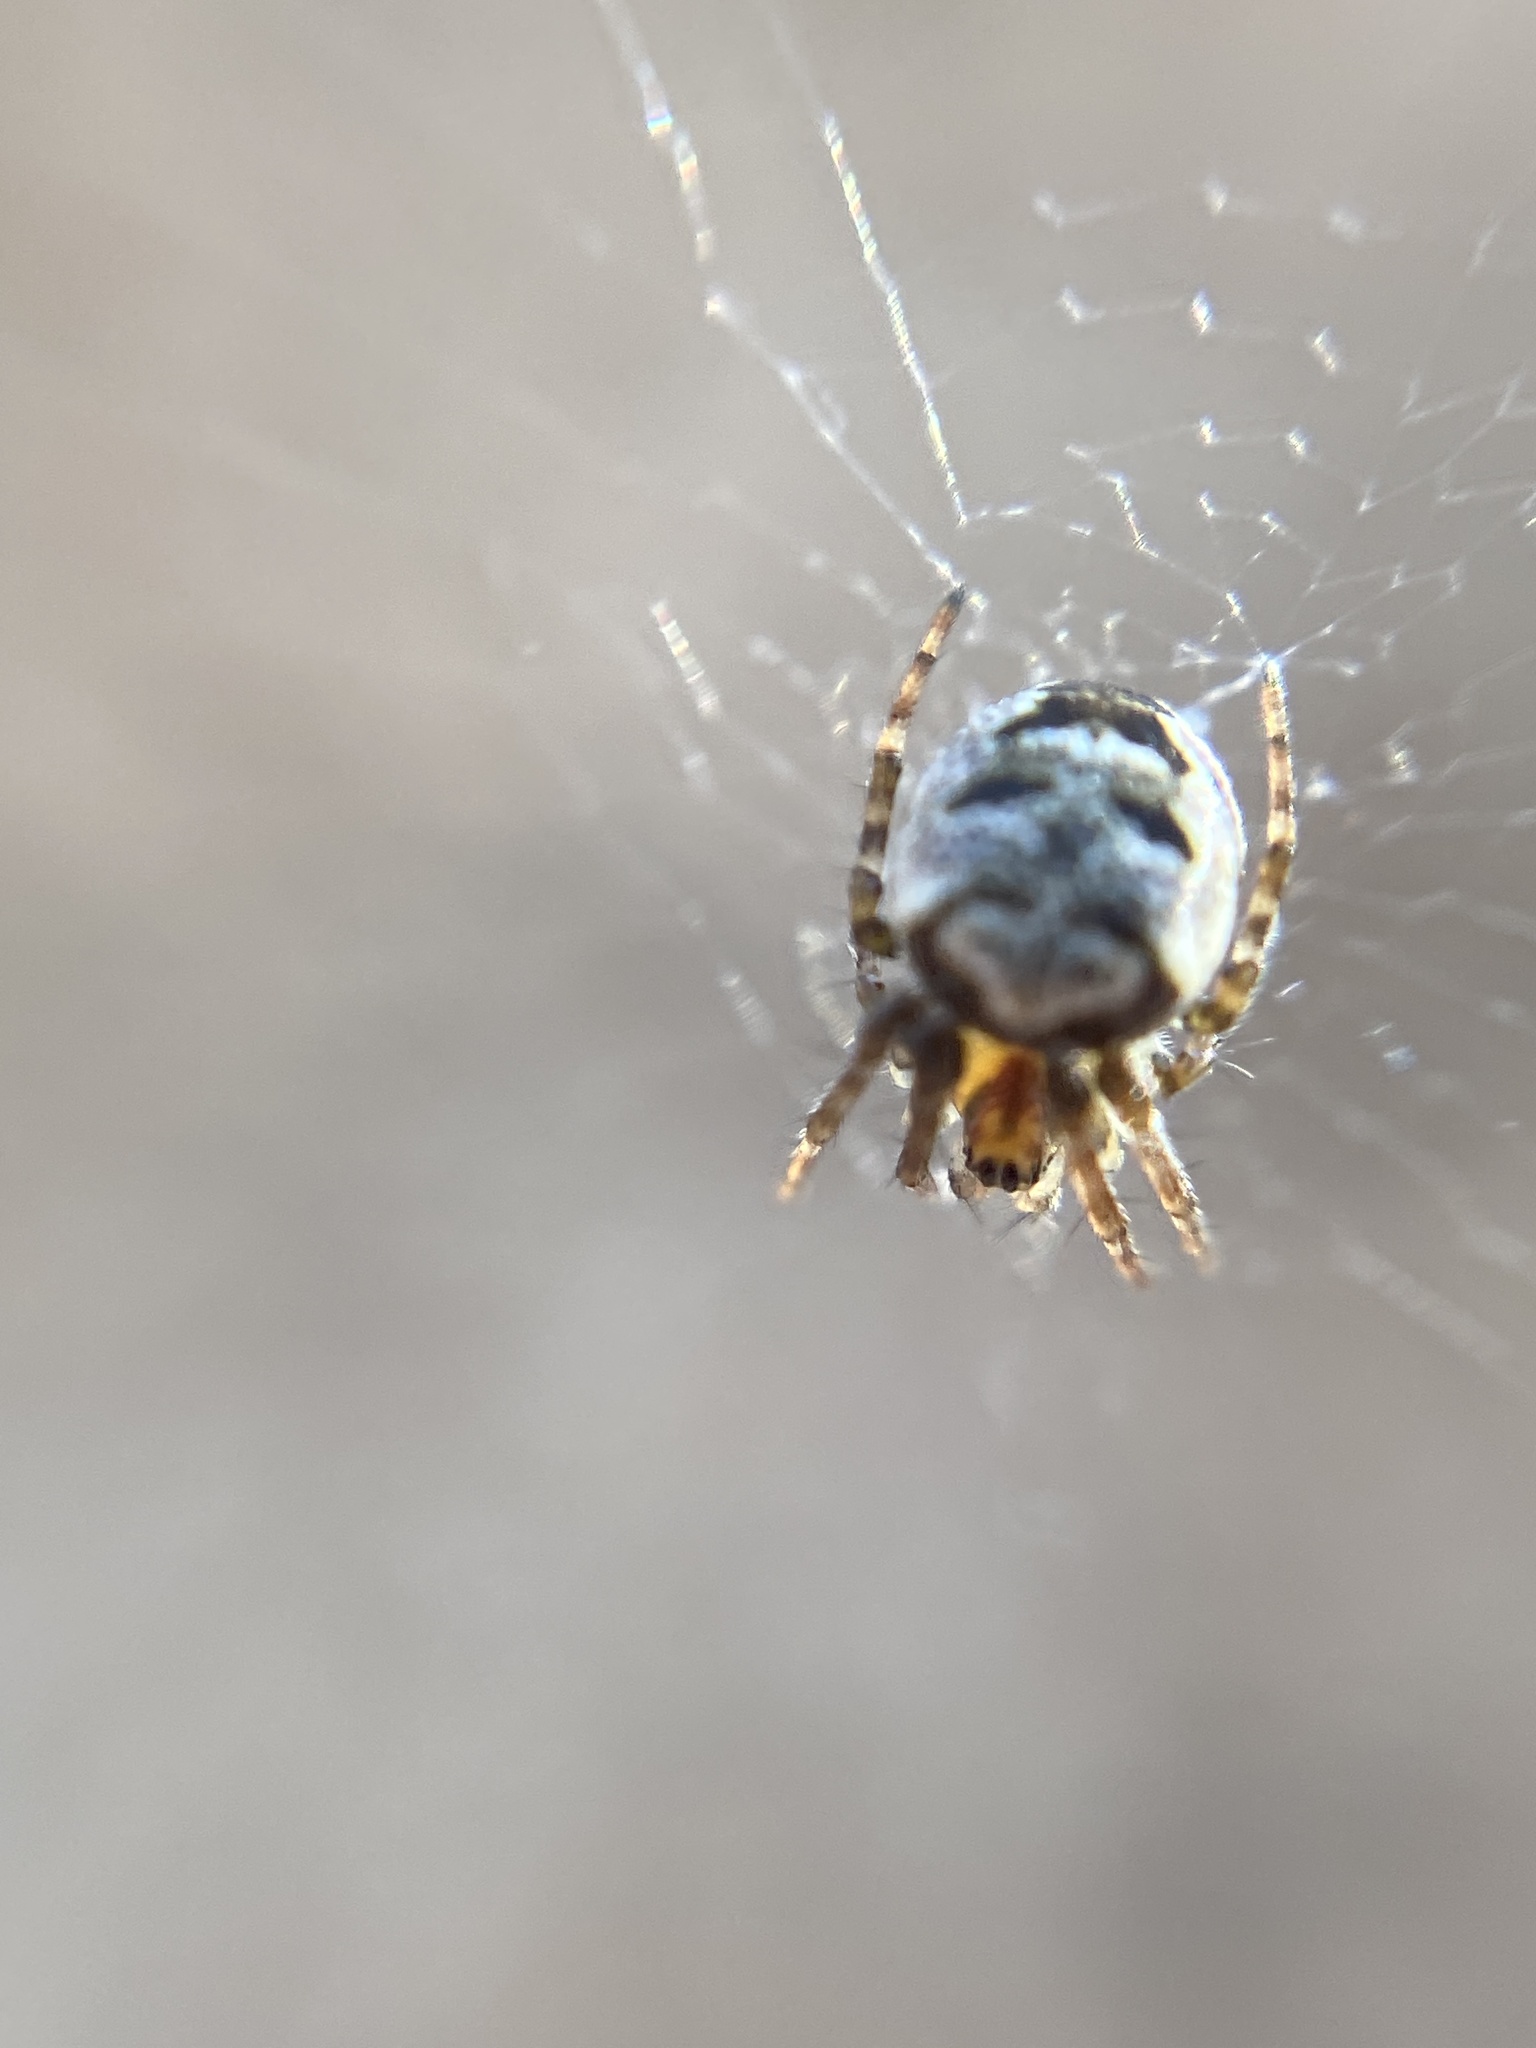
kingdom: Animalia
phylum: Arthropoda
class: Arachnida
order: Araneae
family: Araneidae
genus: Zilla
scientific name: Zilla diodia
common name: Zilla diodia
